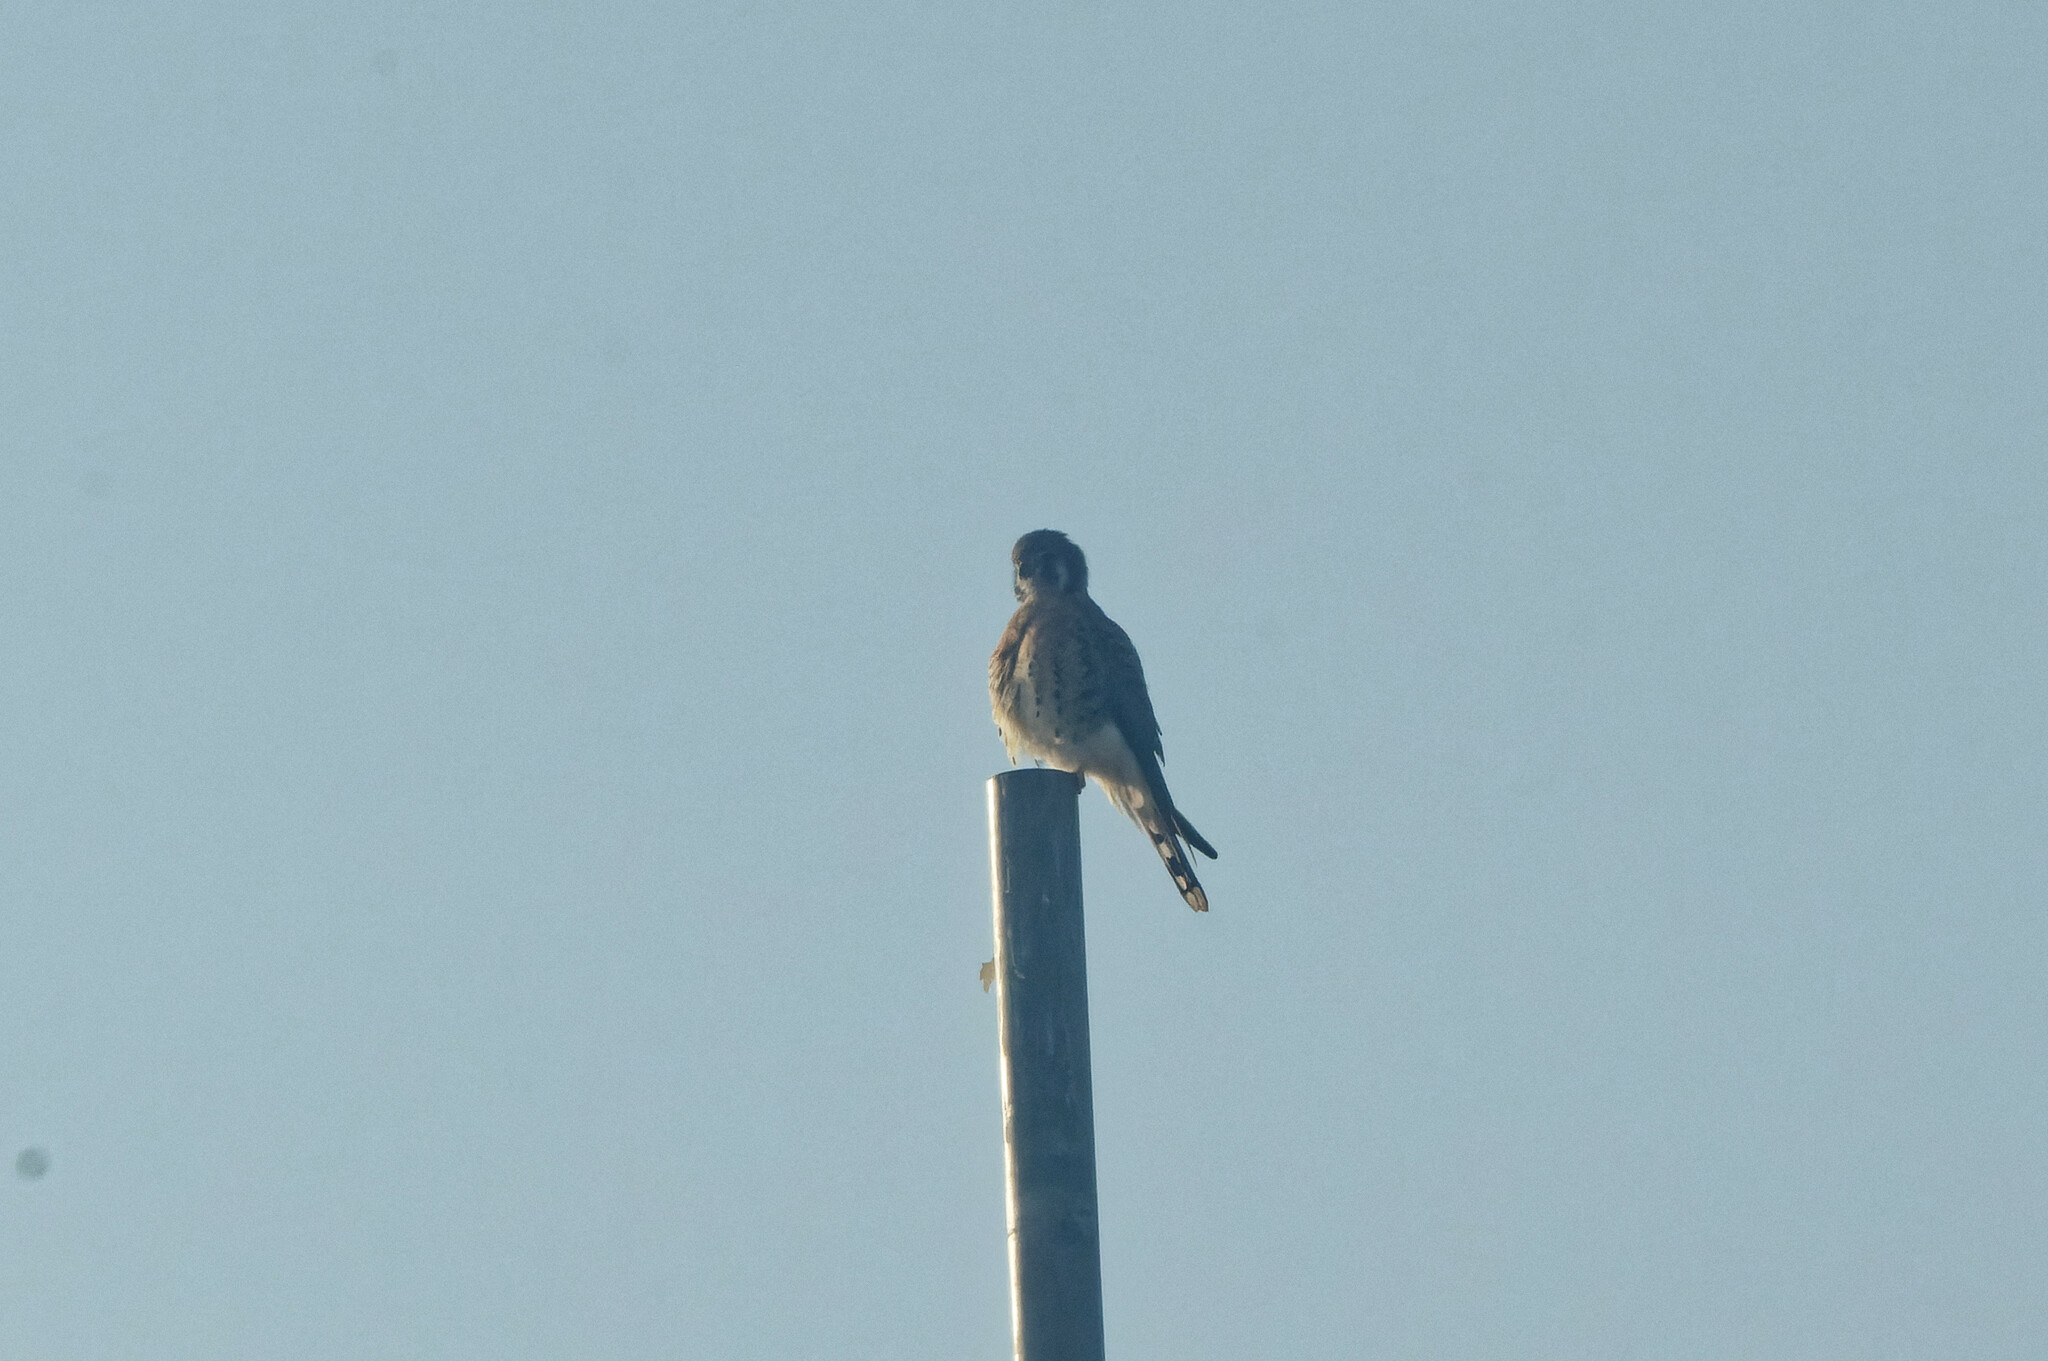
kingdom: Animalia
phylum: Chordata
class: Aves
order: Falconiformes
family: Falconidae
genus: Falco
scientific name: Falco sparverius
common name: American kestrel
